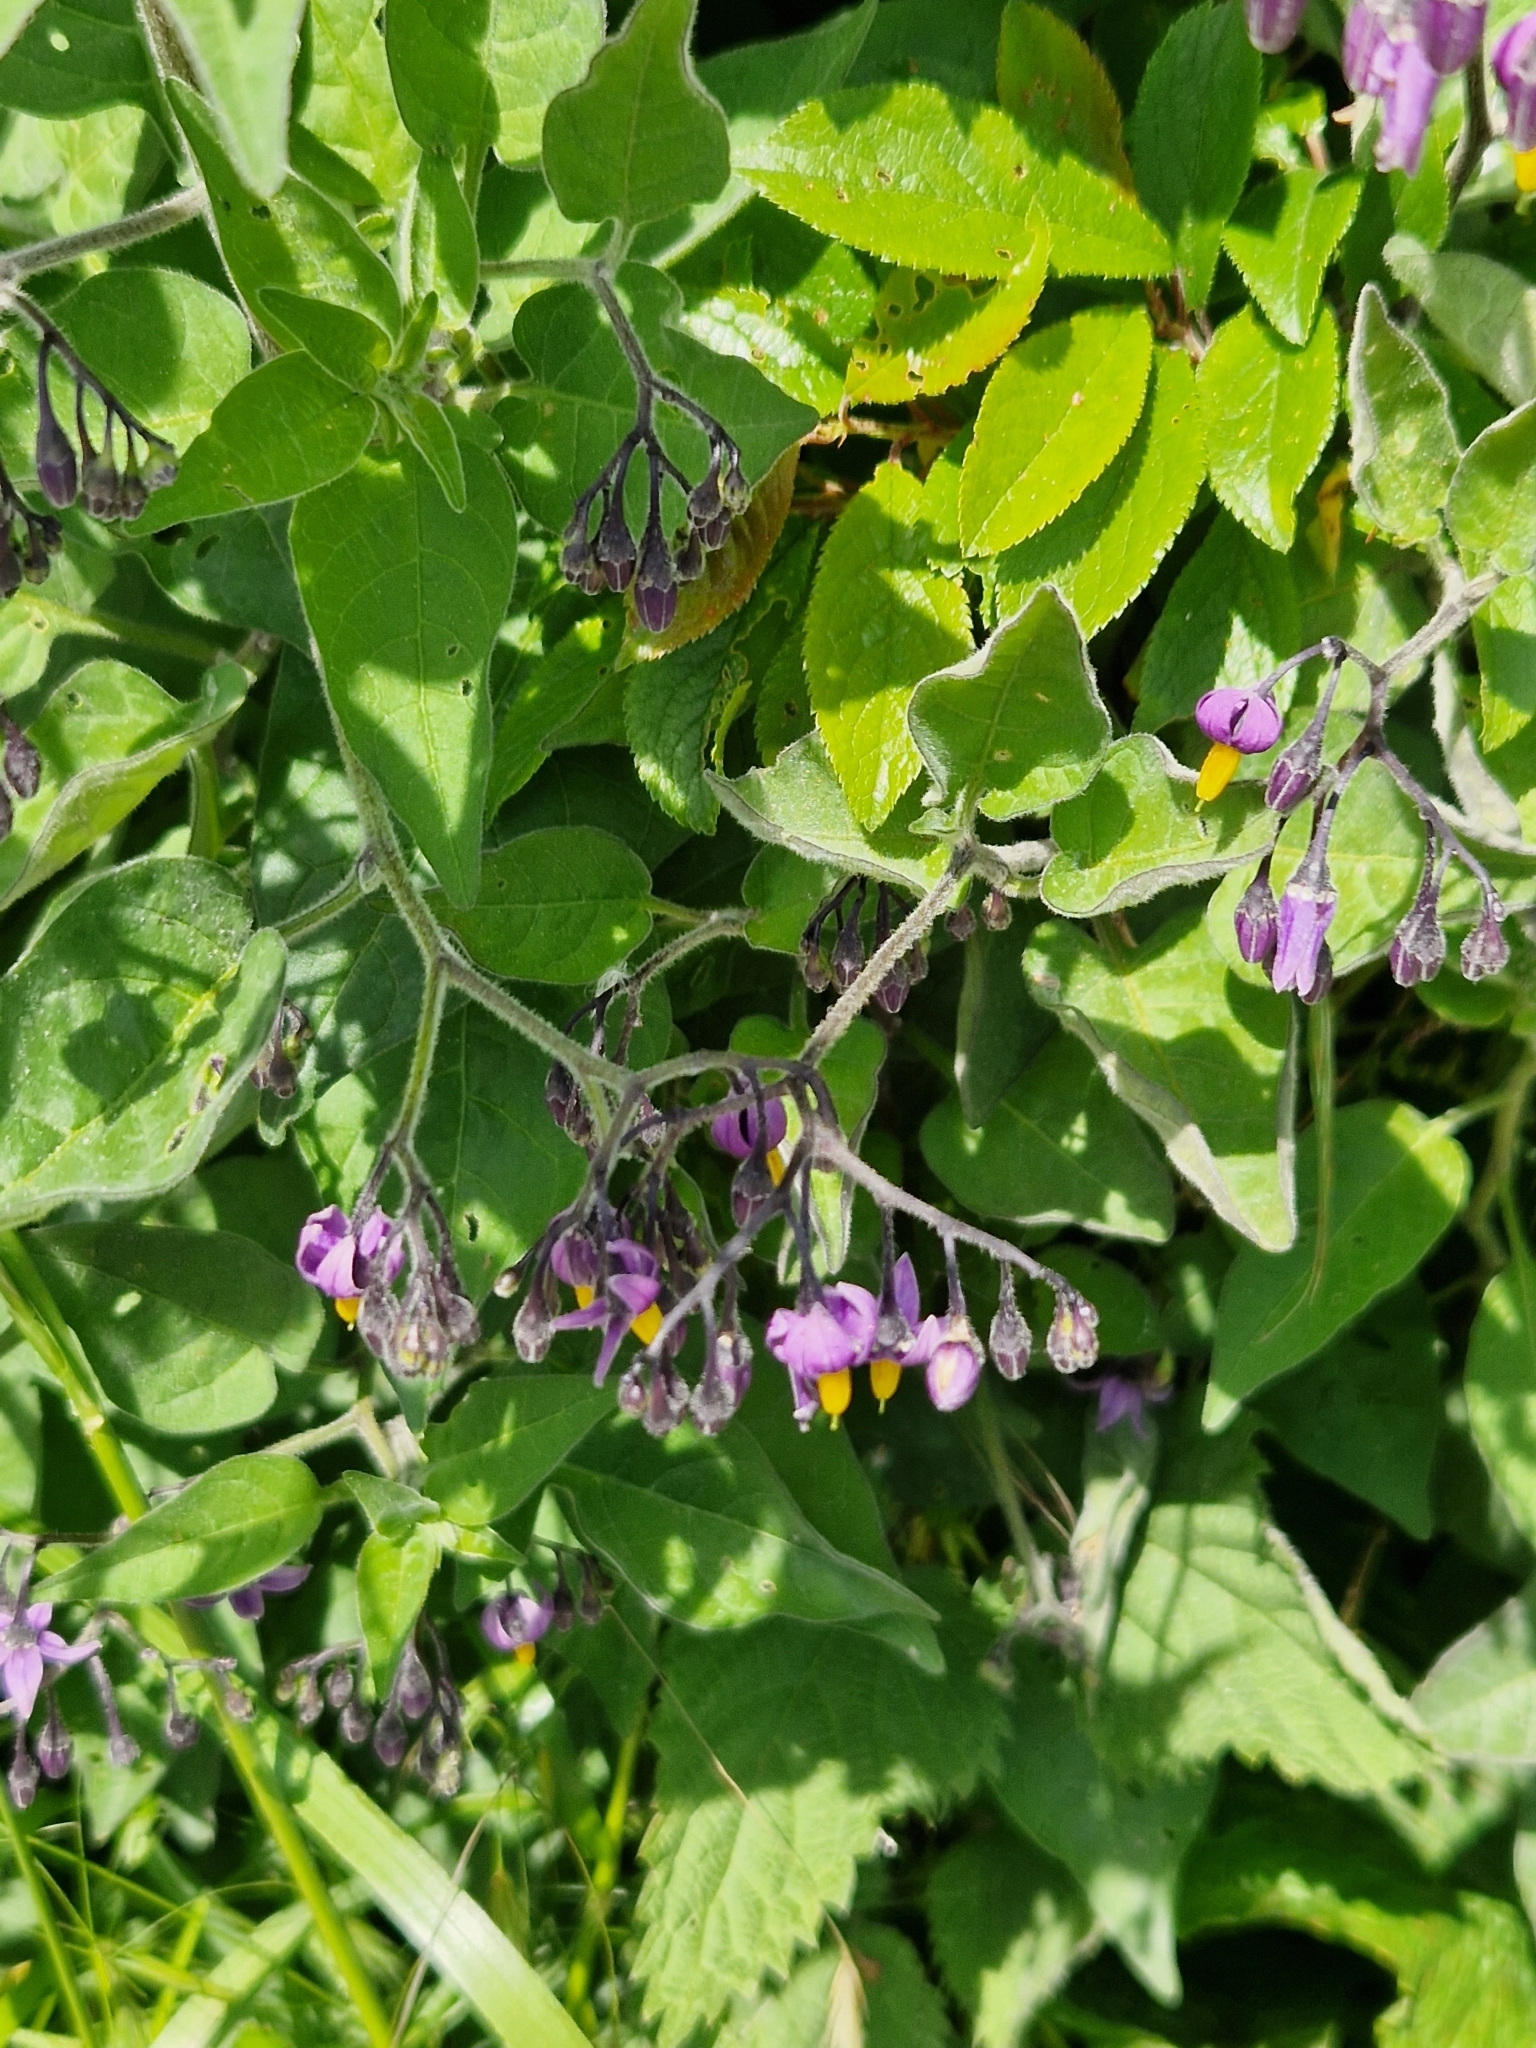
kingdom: Plantae
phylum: Tracheophyta
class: Magnoliopsida
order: Solanales
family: Solanaceae
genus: Solanum
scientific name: Solanum dulcamara
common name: Climbing nightshade
